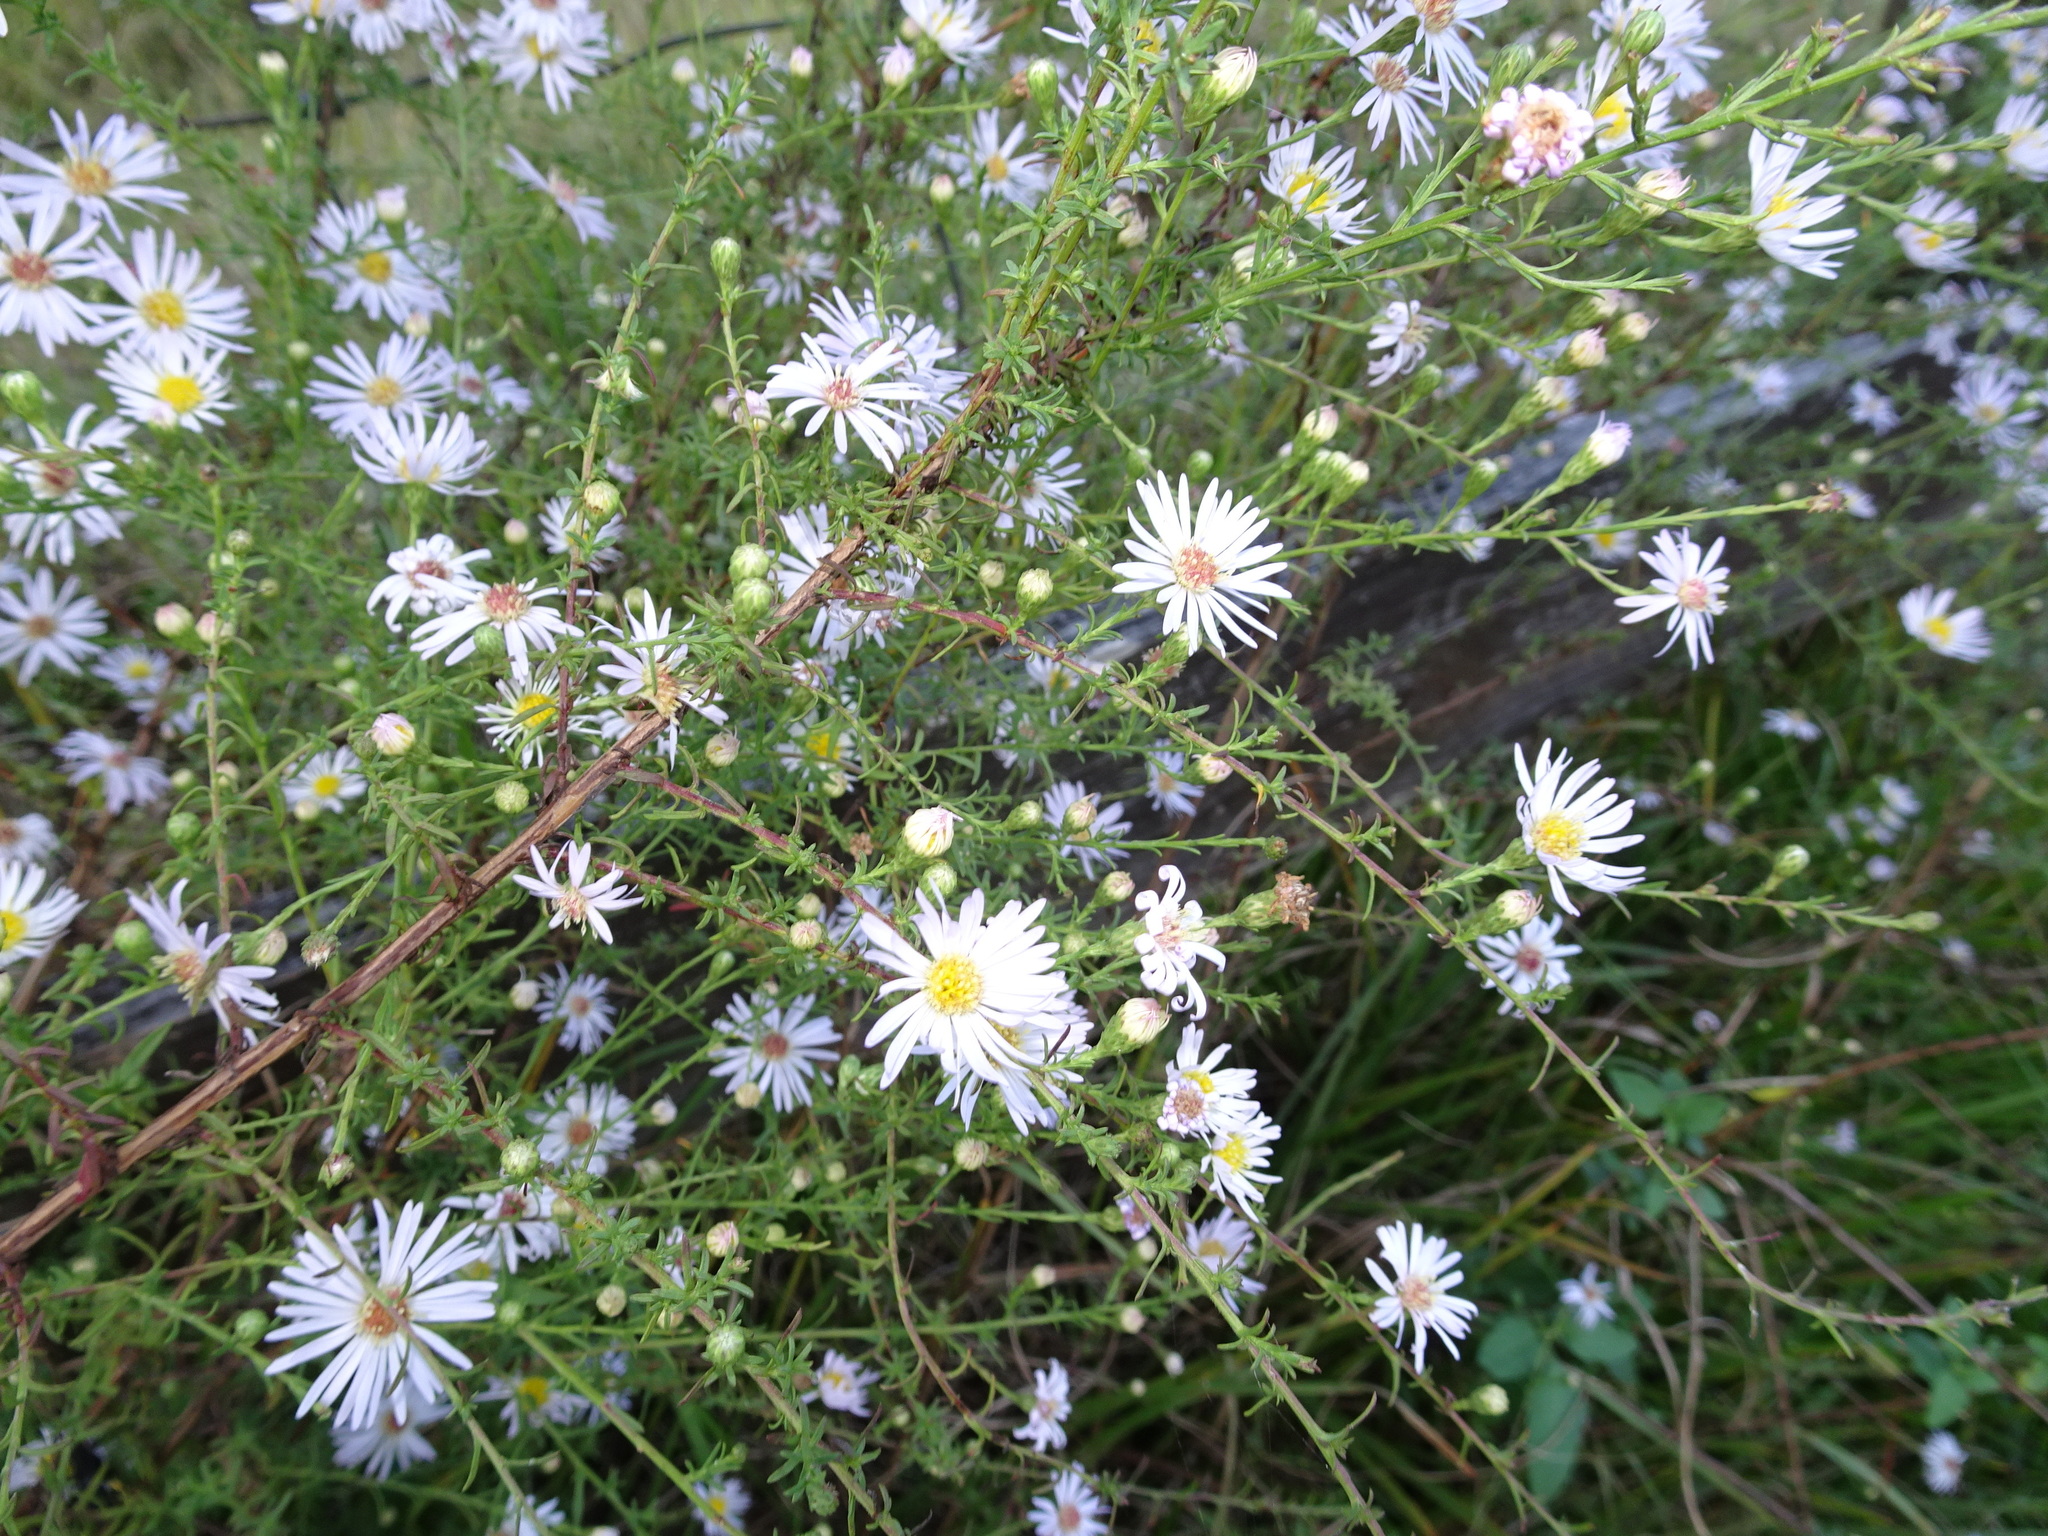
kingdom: Plantae
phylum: Tracheophyta
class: Magnoliopsida
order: Asterales
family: Asteraceae
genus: Symphyotrichum
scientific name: Symphyotrichum dumosum
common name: Bushy aster
